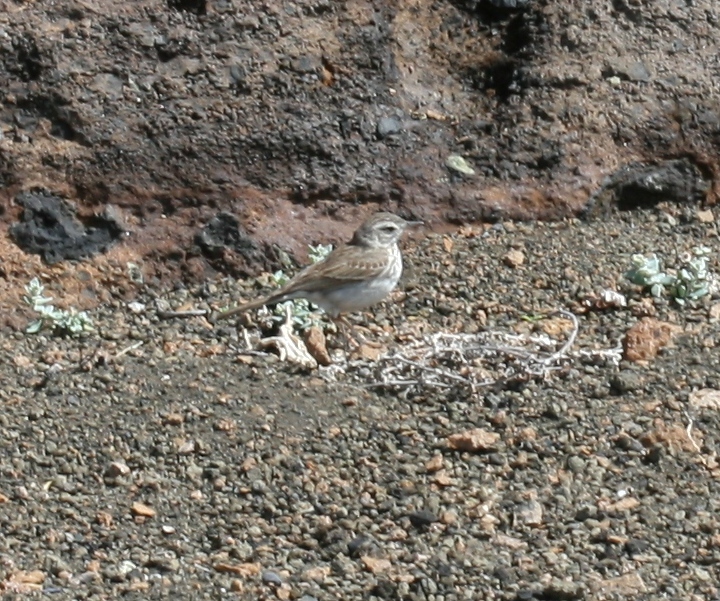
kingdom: Animalia
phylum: Chordata
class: Aves
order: Passeriformes
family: Motacillidae
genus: Anthus
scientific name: Anthus berthelotii
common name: Berthelot's pipit
